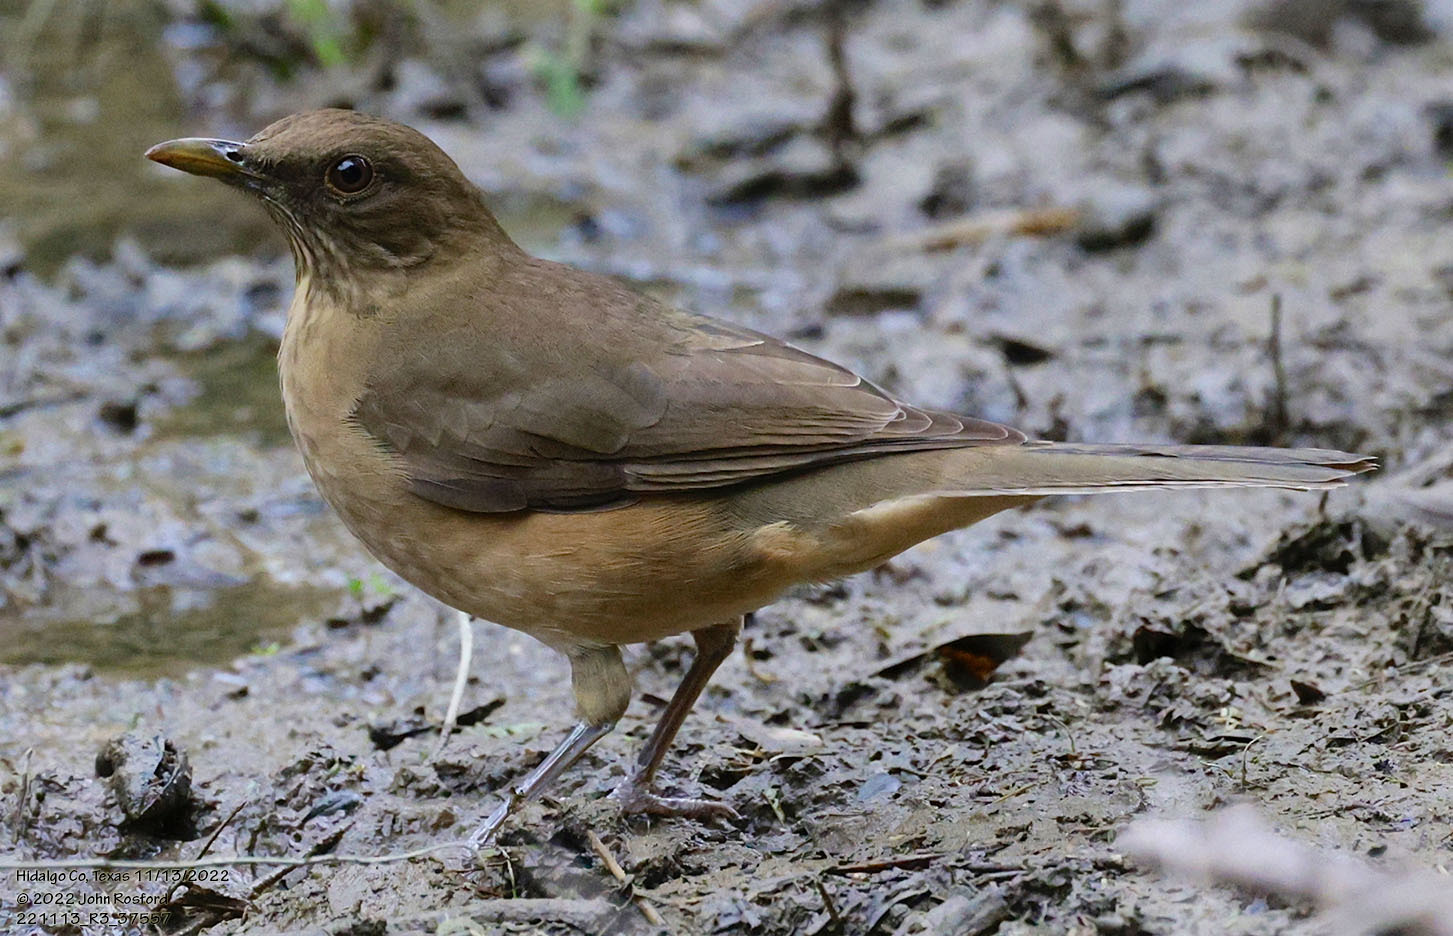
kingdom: Animalia
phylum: Chordata
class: Aves
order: Passeriformes
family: Turdidae
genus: Turdus
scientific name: Turdus grayi
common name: Clay-colored thrush
